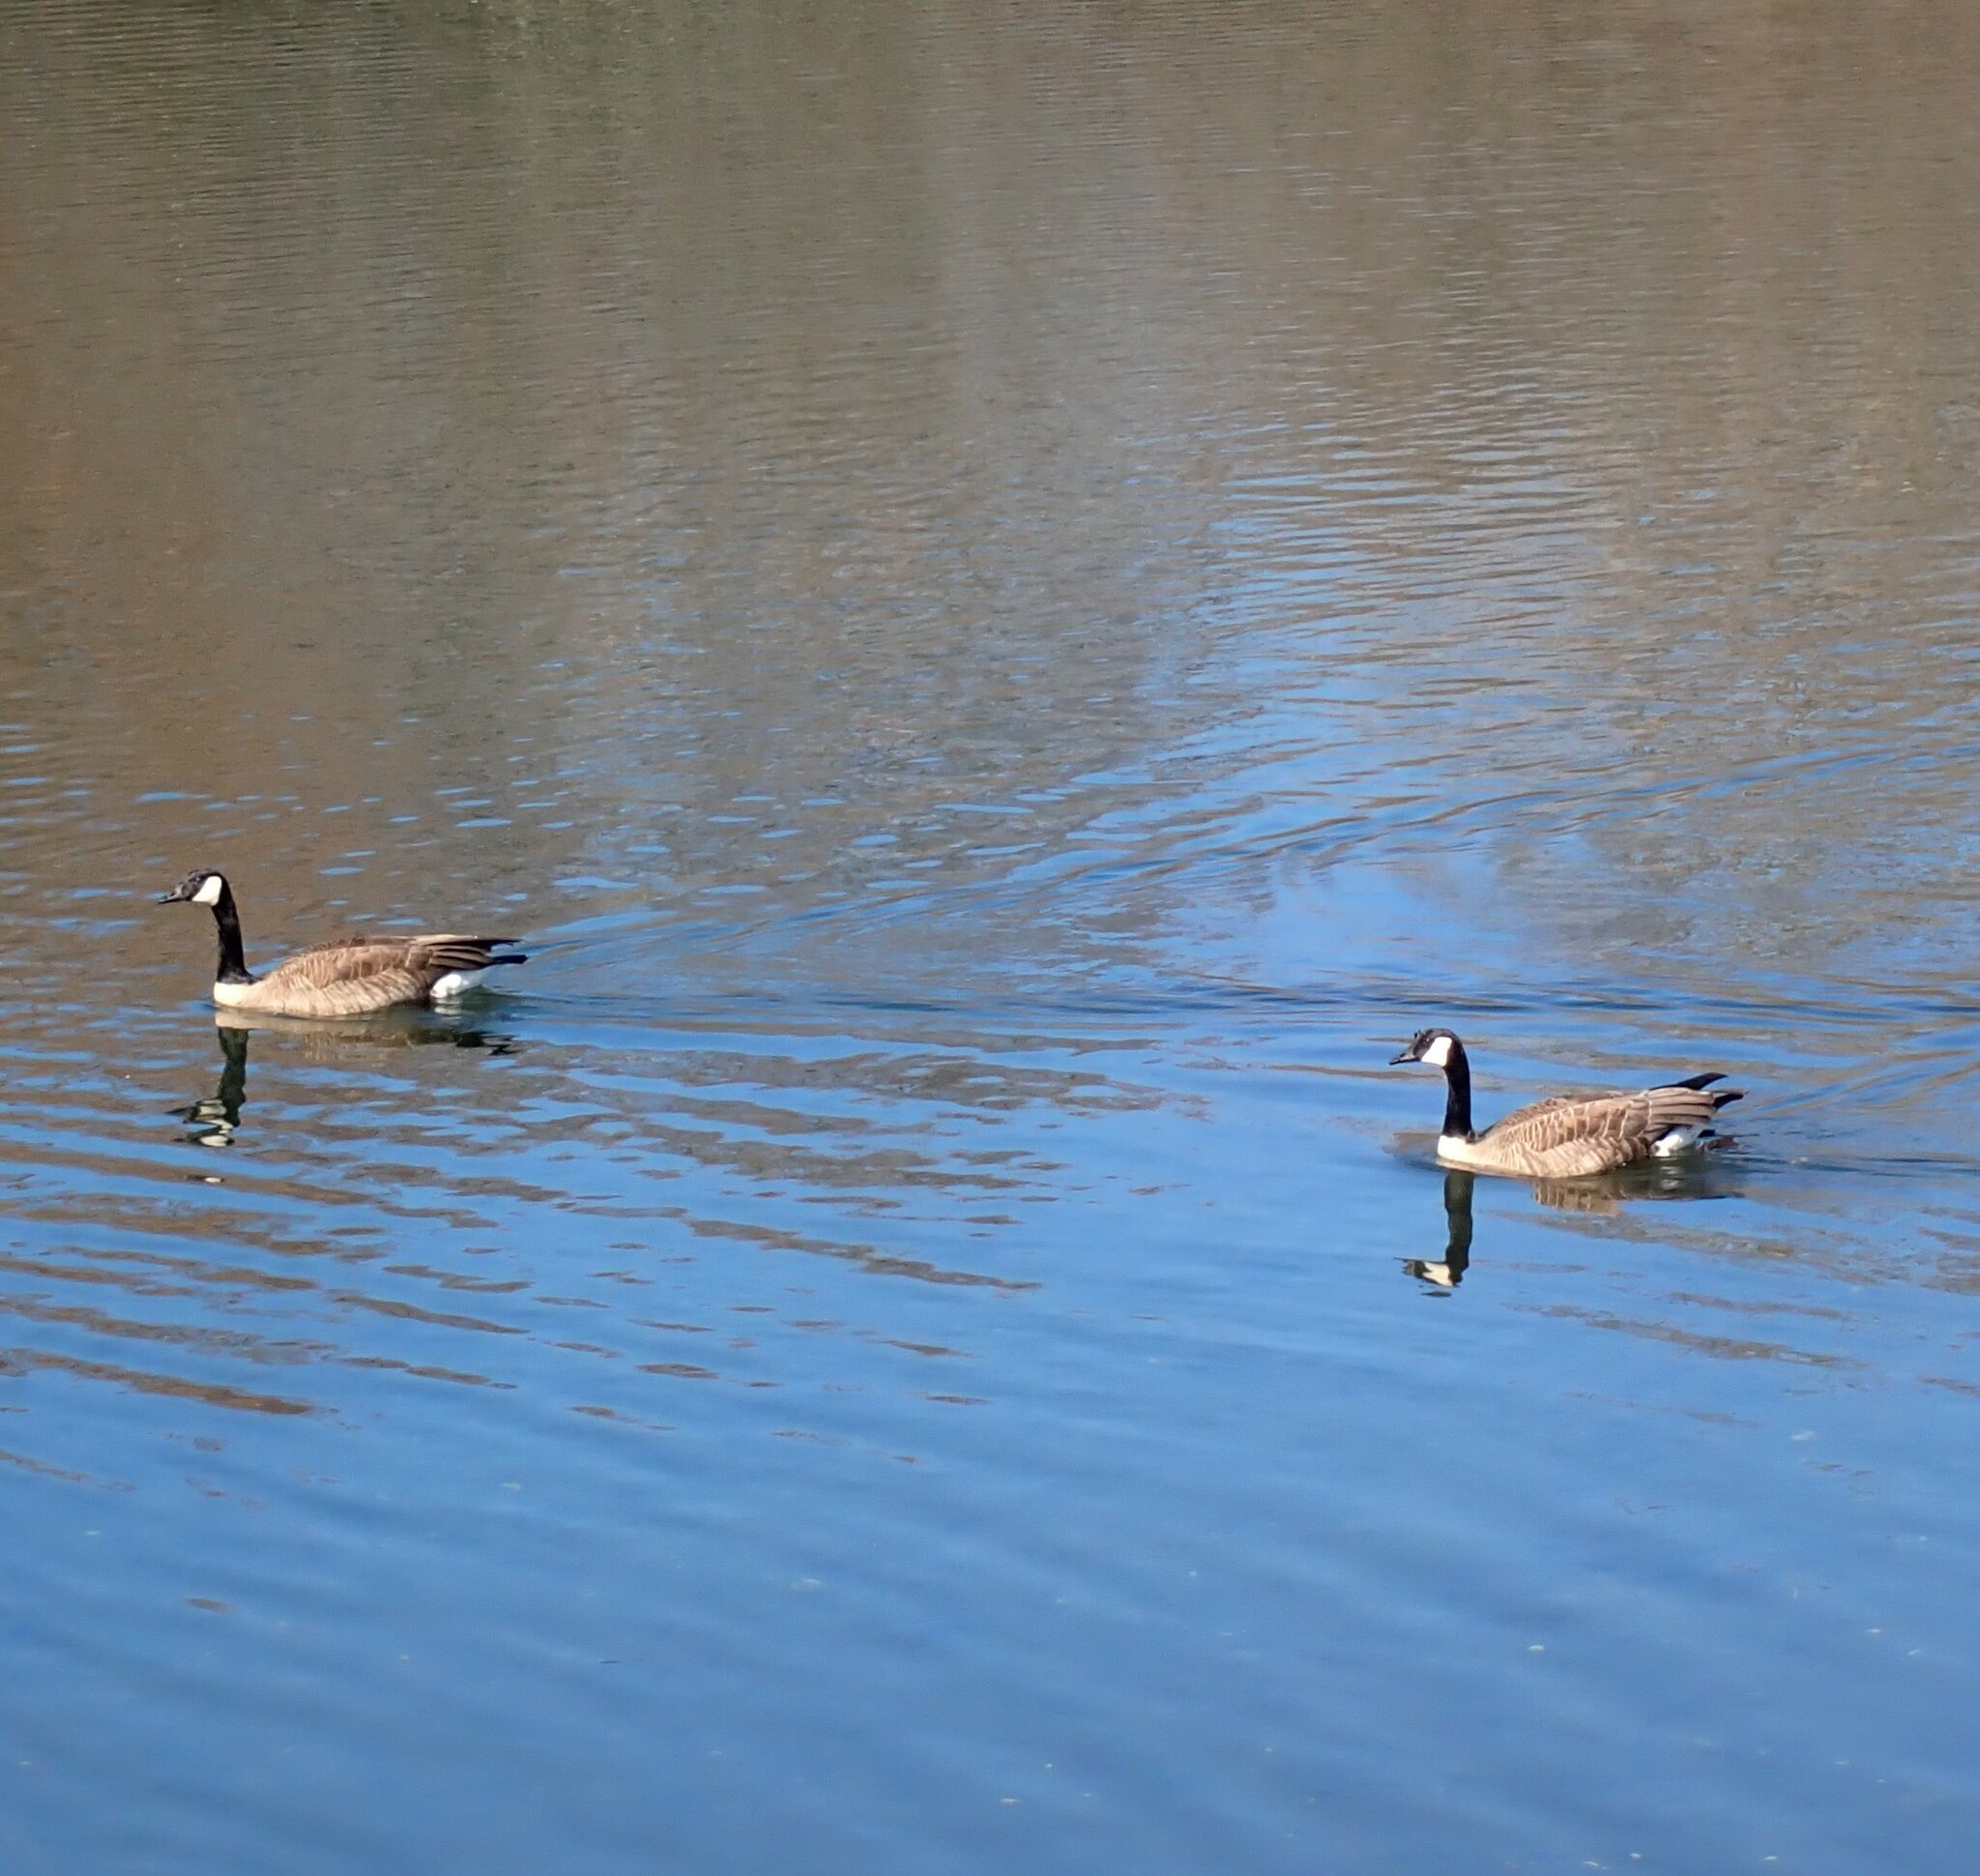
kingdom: Animalia
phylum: Chordata
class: Aves
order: Anseriformes
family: Anatidae
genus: Branta
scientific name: Branta canadensis
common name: Canada goose
